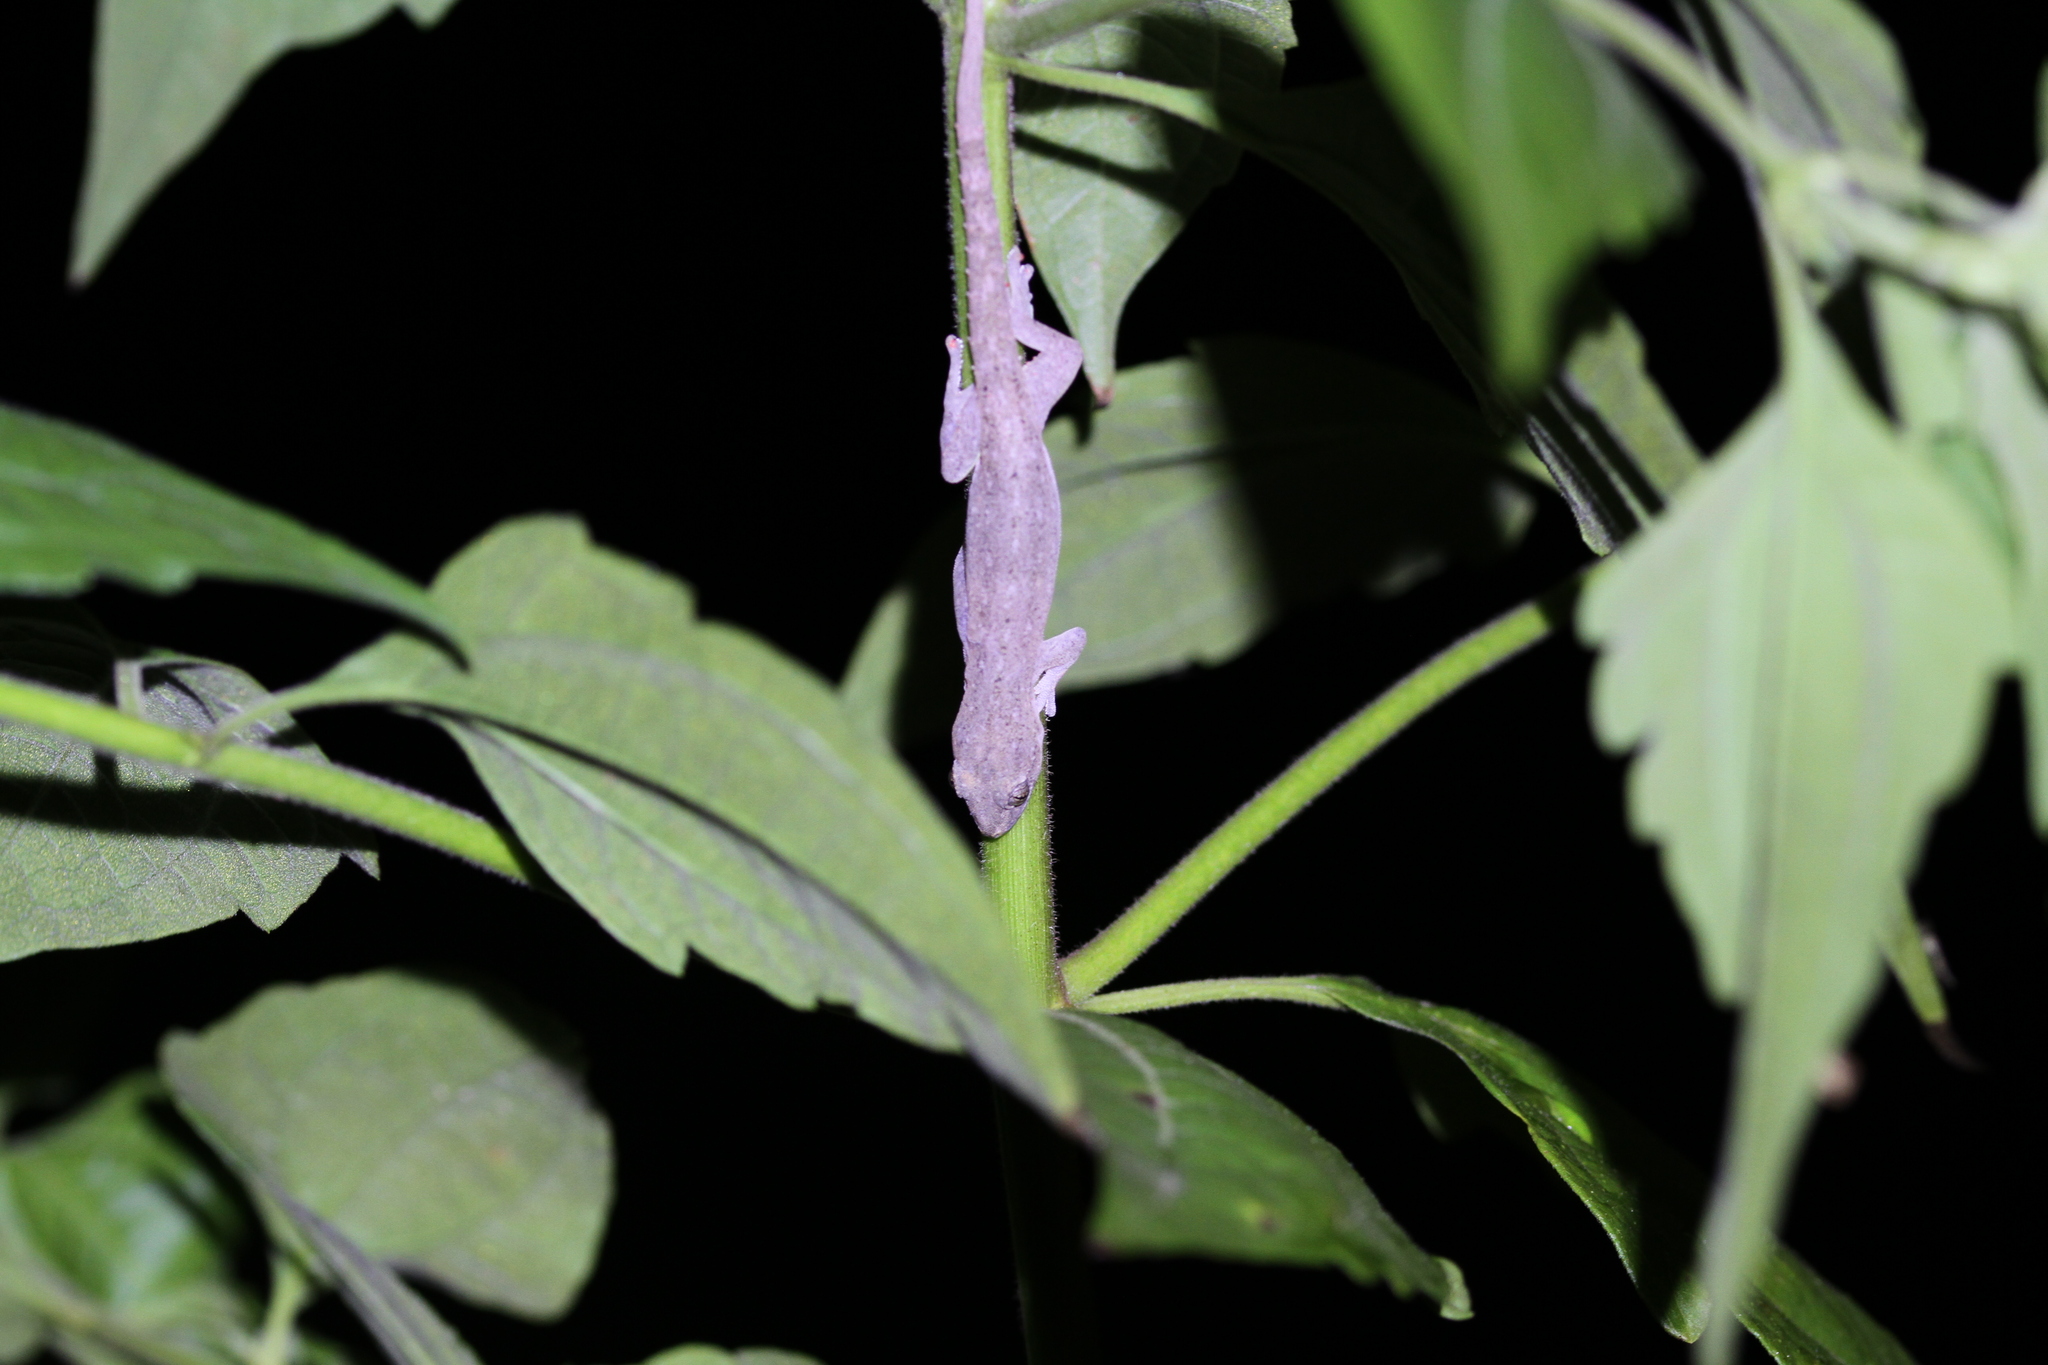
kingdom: Animalia
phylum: Chordata
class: Squamata
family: Gekkonidae
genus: Hemidactylus
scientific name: Hemidactylus frenatus
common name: Common house gecko
